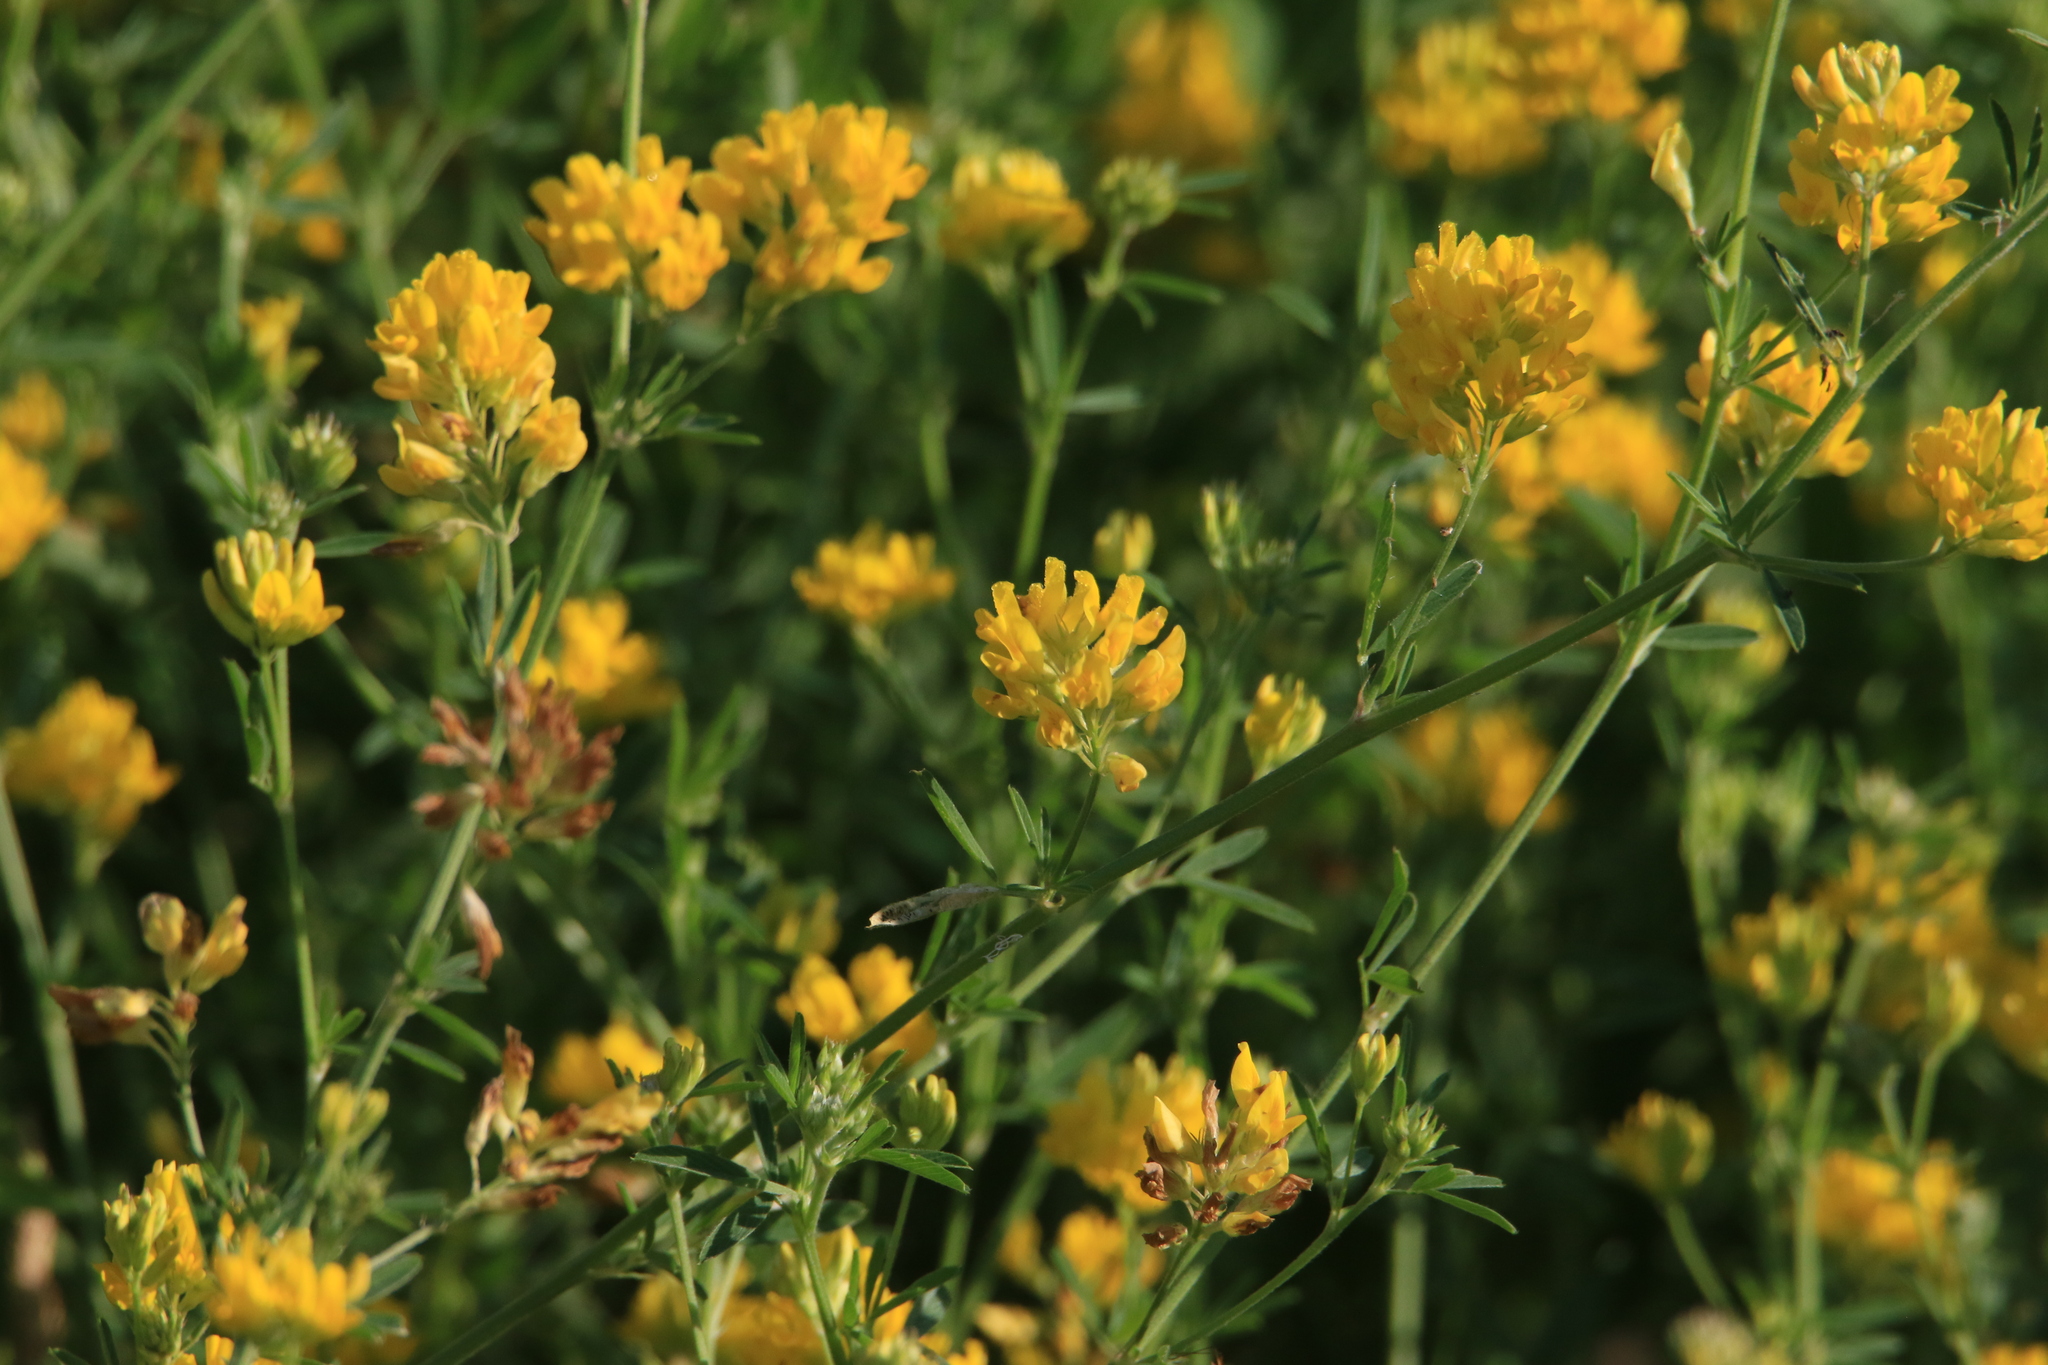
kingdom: Plantae
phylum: Tracheophyta
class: Magnoliopsida
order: Fabales
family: Fabaceae
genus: Medicago
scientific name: Medicago falcata
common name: Sickle medick
